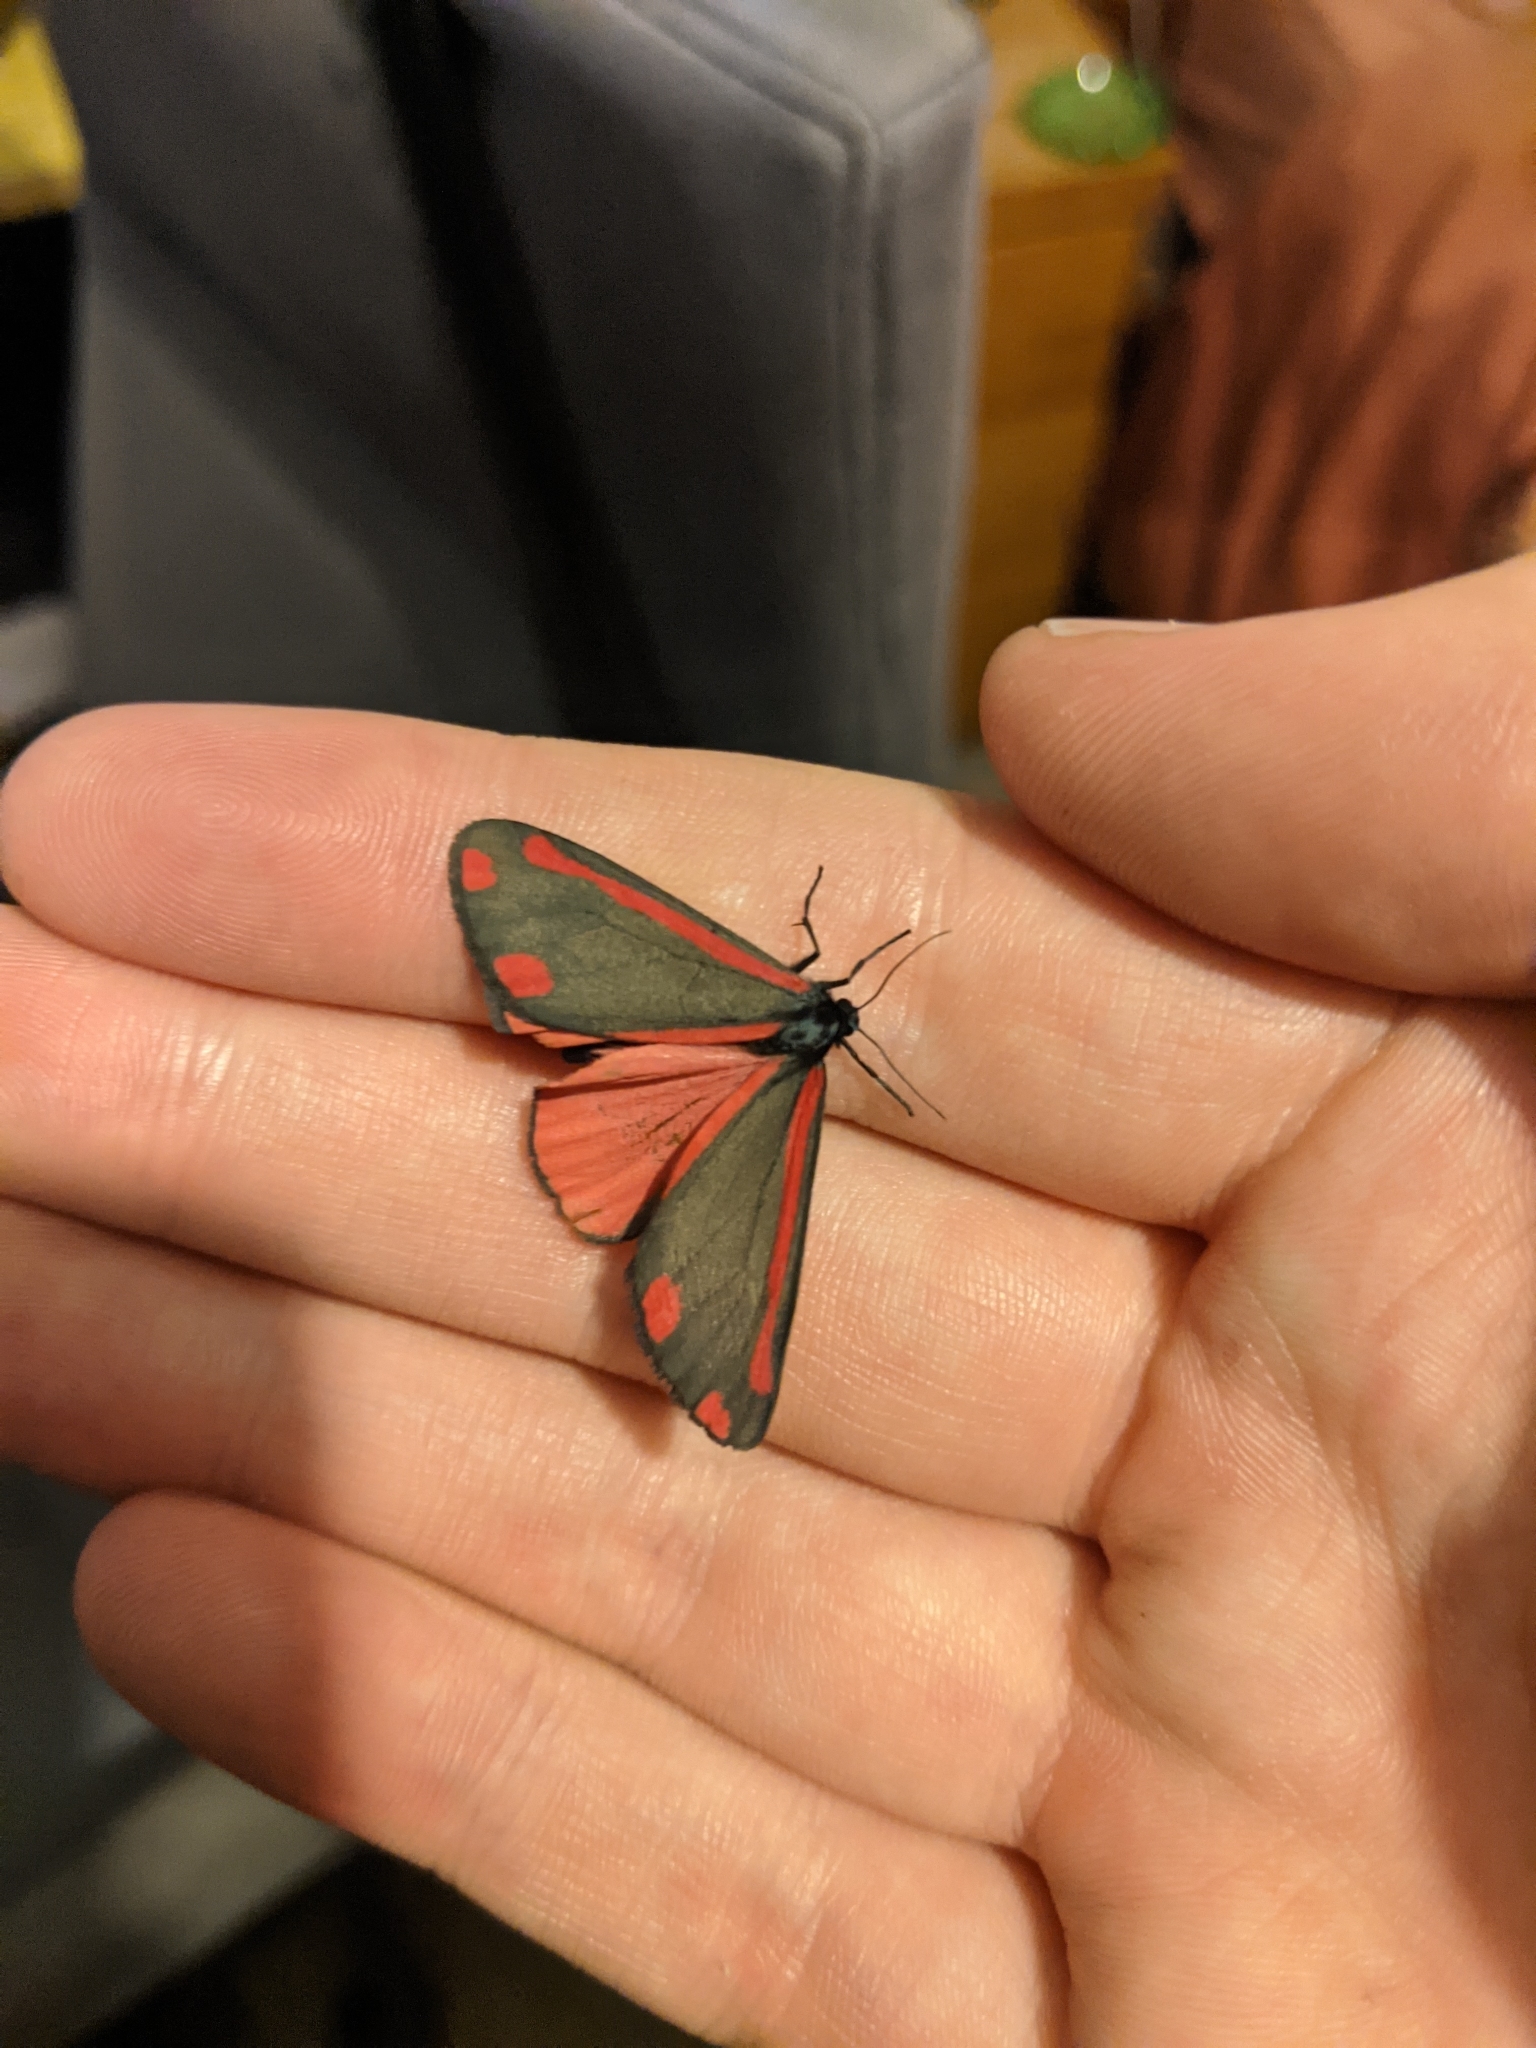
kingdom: Animalia
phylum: Arthropoda
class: Insecta
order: Lepidoptera
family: Erebidae
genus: Tyria
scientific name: Tyria jacobaeae
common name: Cinnabar
